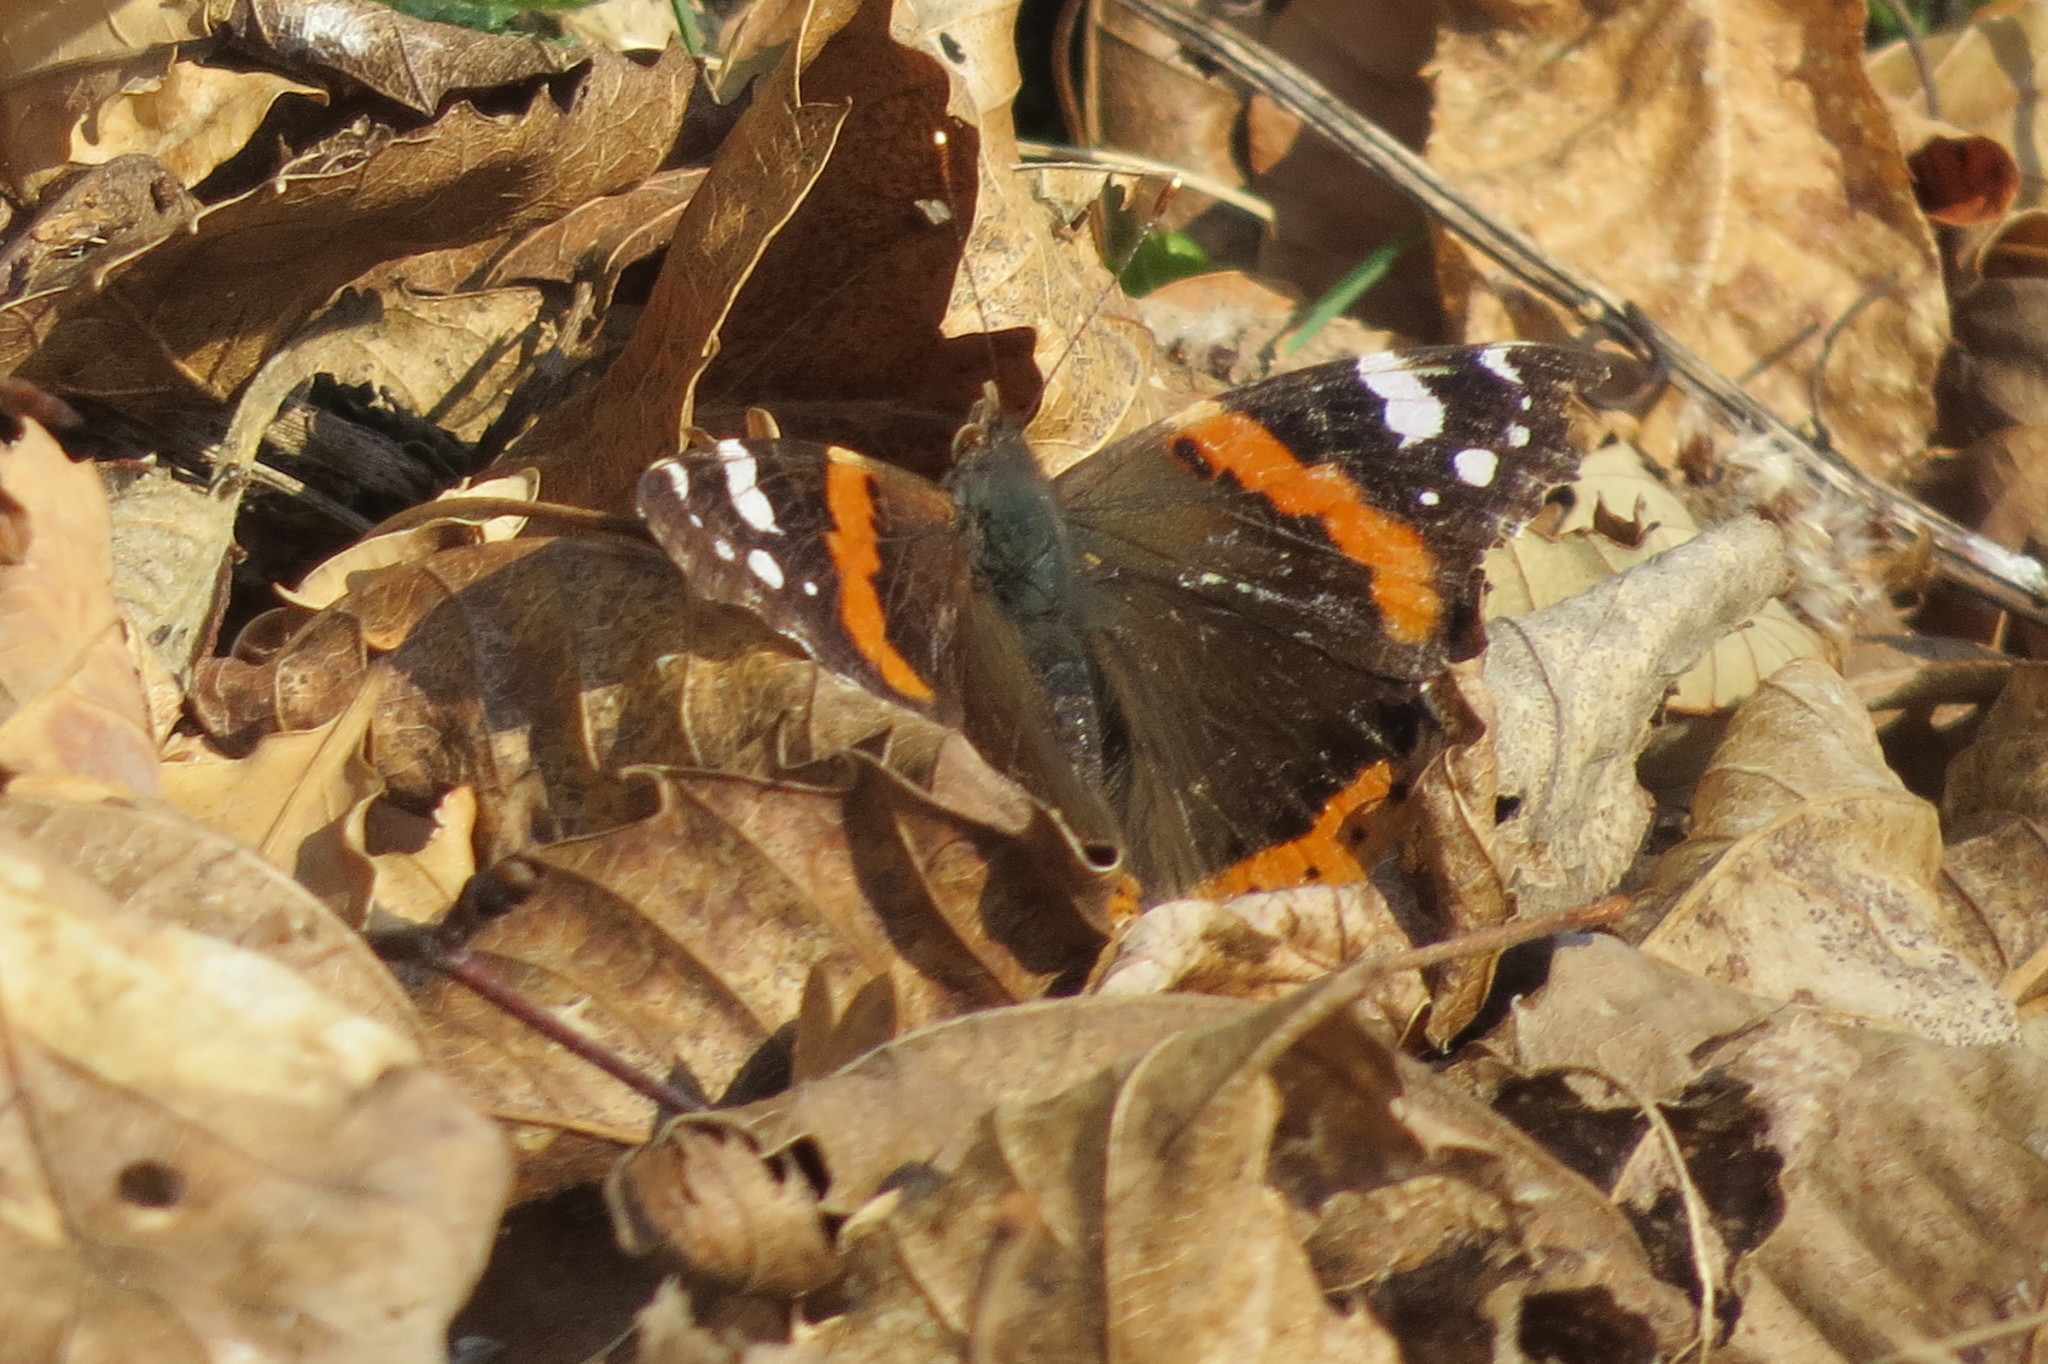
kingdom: Animalia
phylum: Arthropoda
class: Insecta
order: Lepidoptera
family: Nymphalidae
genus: Vanessa
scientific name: Vanessa atalanta
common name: Red admiral
